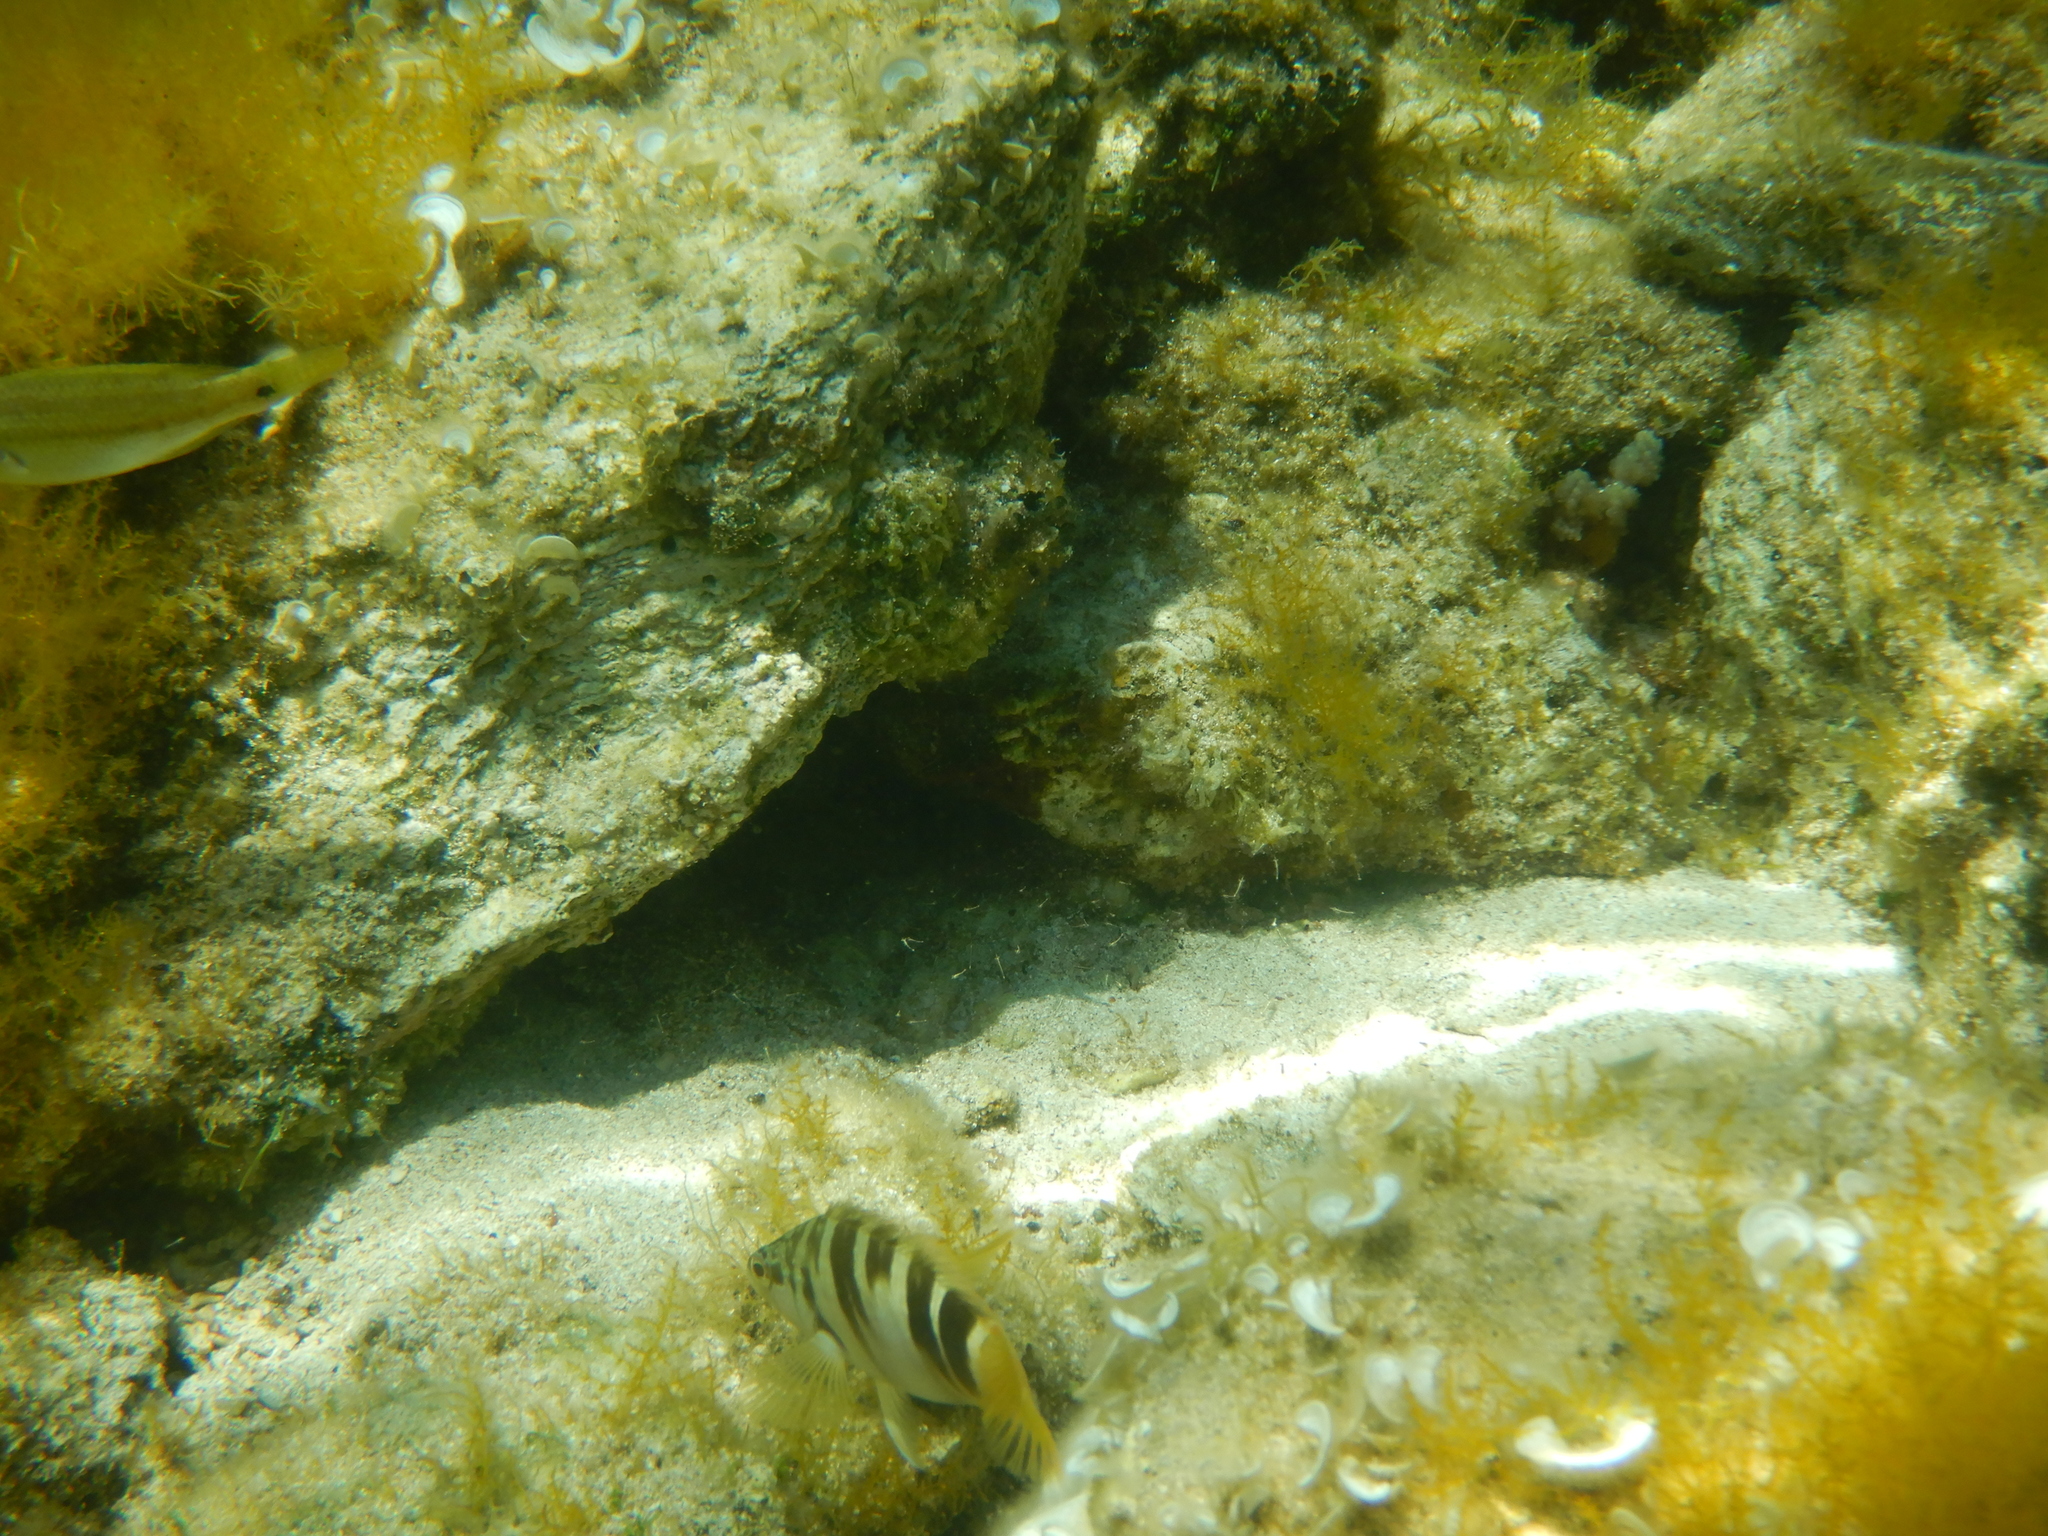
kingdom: Animalia
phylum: Chordata
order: Perciformes
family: Serranidae
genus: Serranus
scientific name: Serranus scriba
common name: Painted comber
